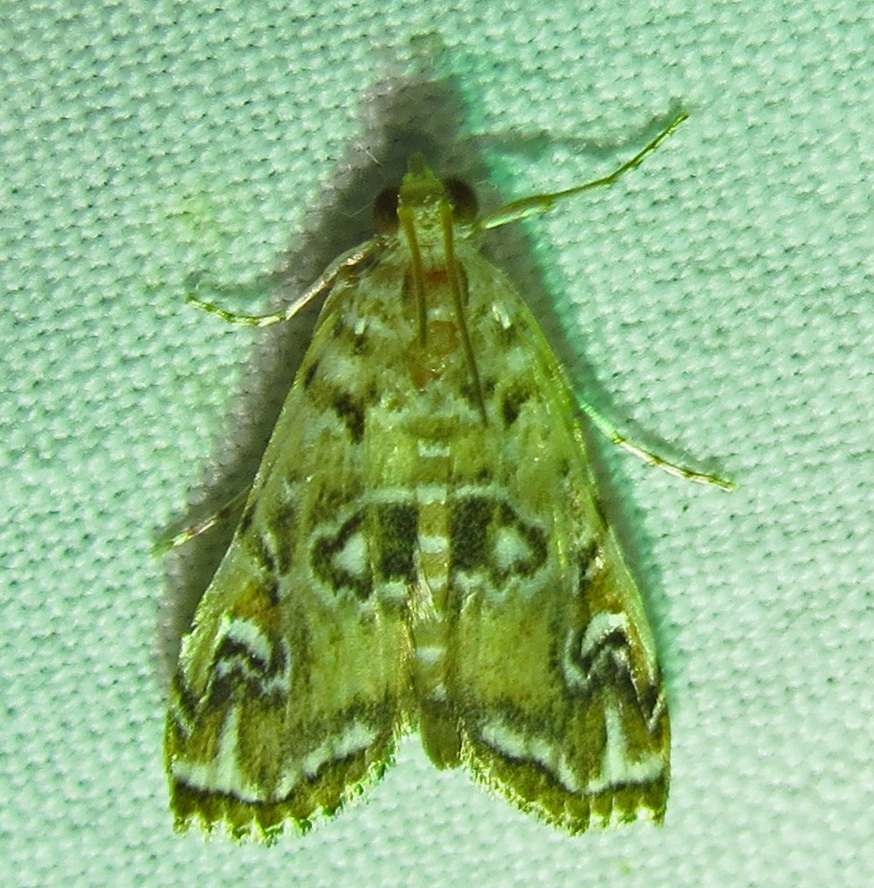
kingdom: Animalia
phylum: Arthropoda
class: Insecta
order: Lepidoptera
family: Crambidae
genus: Elophila
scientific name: Elophila gyralis
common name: Waterlily borer moth
